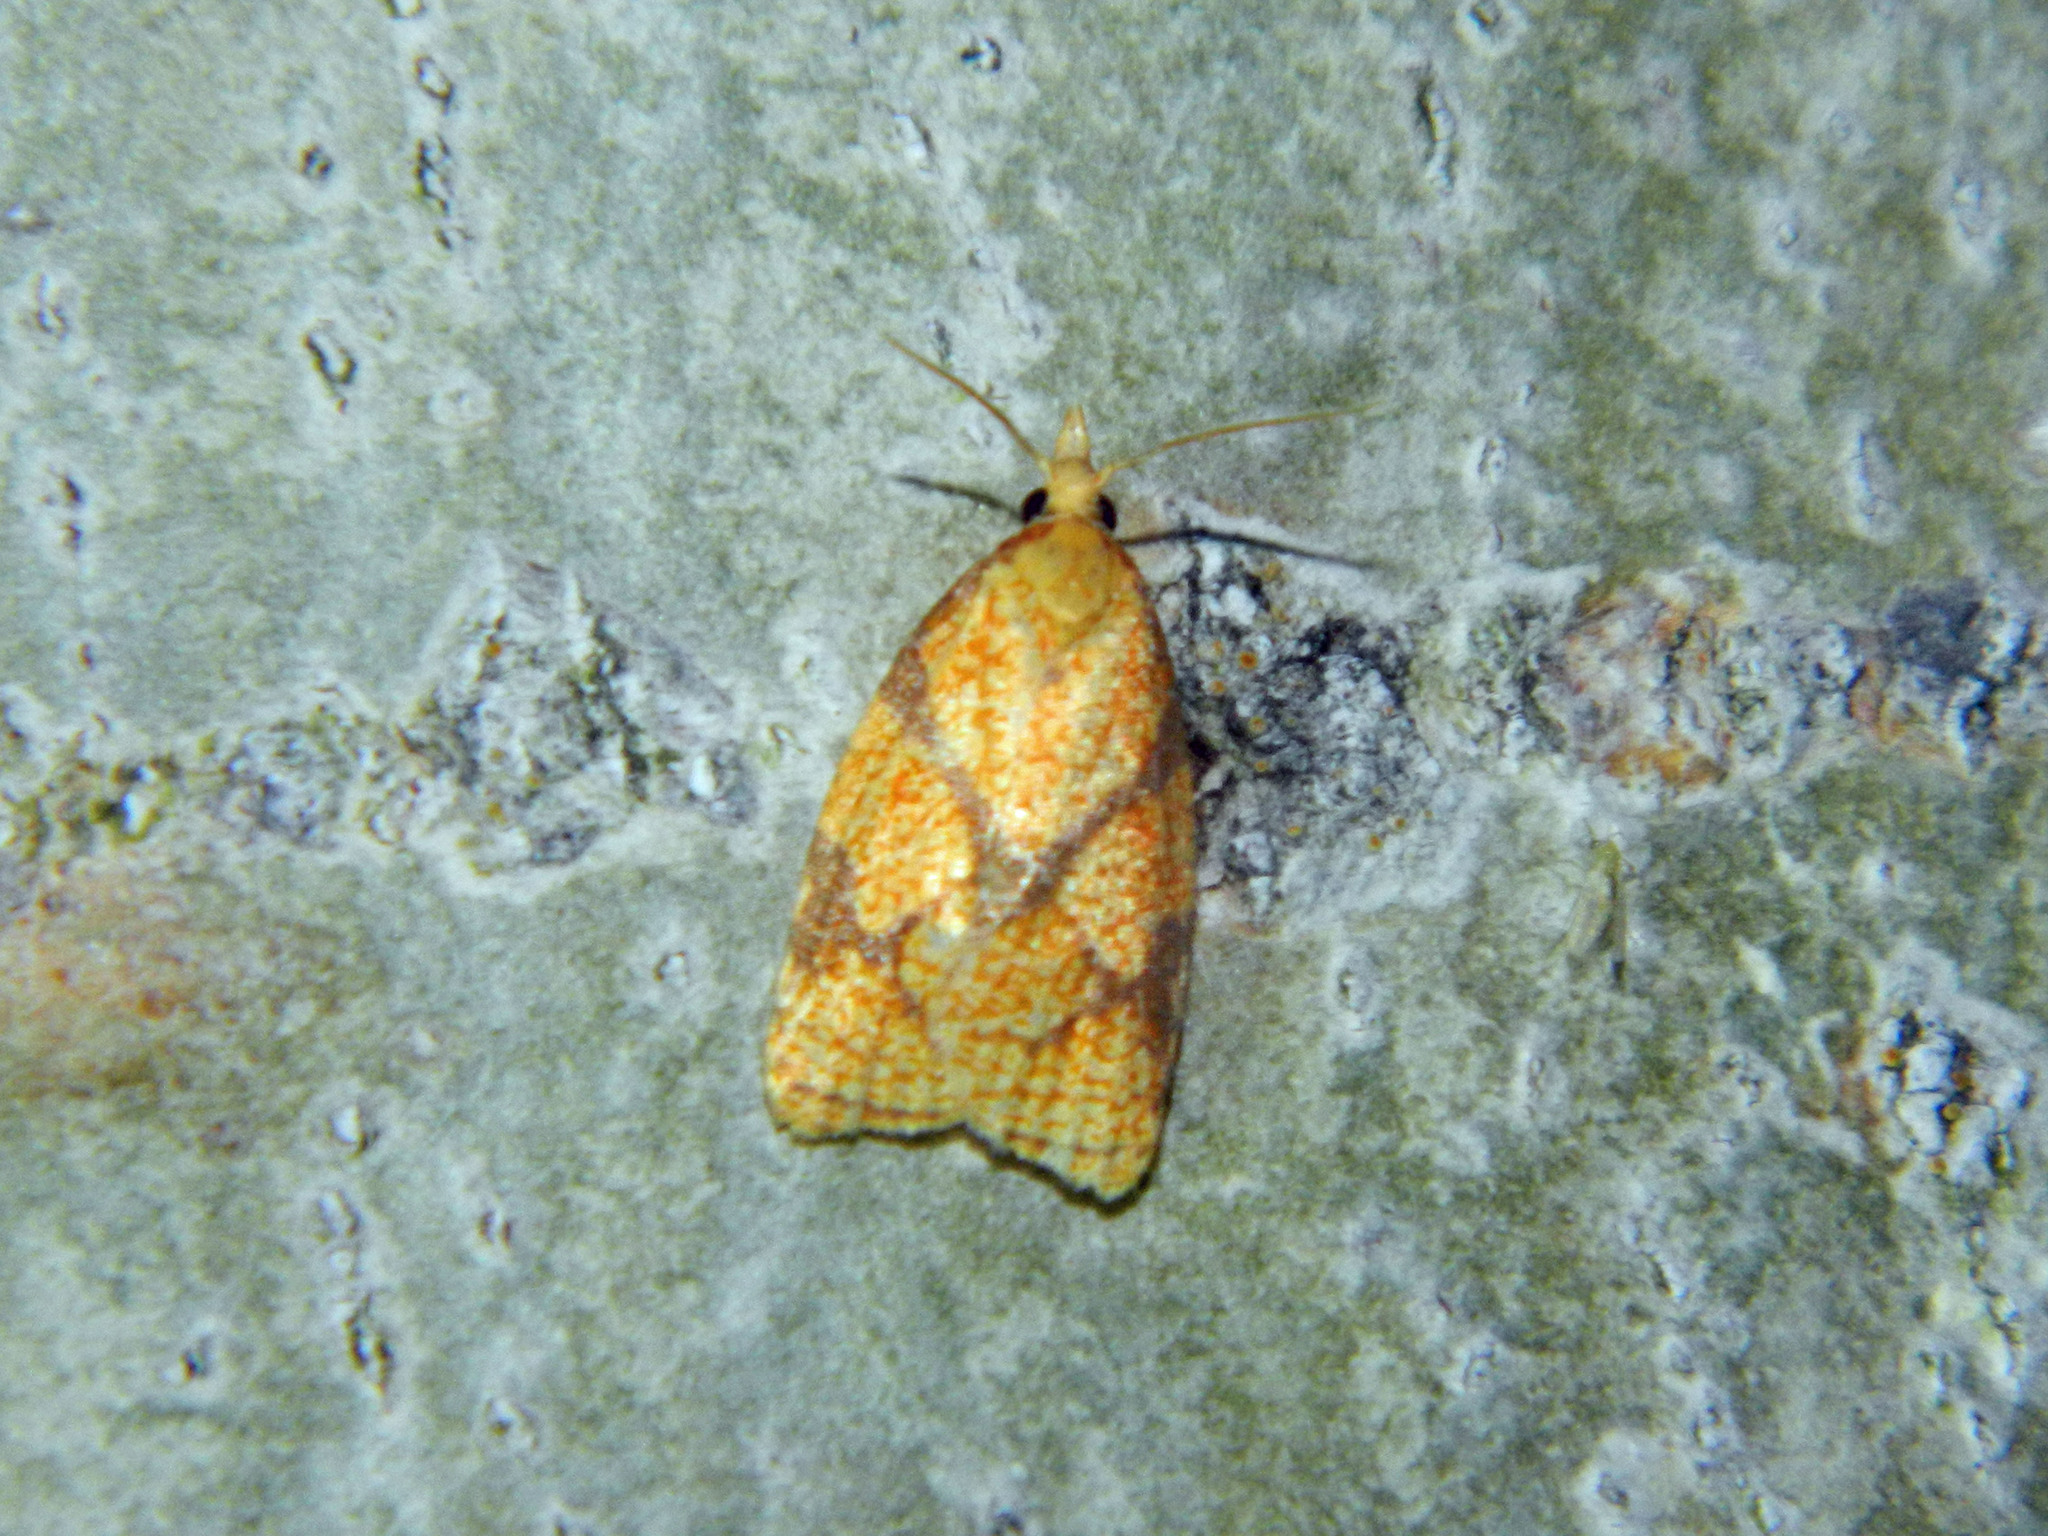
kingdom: Animalia
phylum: Arthropoda
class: Insecta
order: Lepidoptera
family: Tortricidae
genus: Cenopis
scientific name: Cenopis reticulatana
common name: Reticulated fruitworm moth
